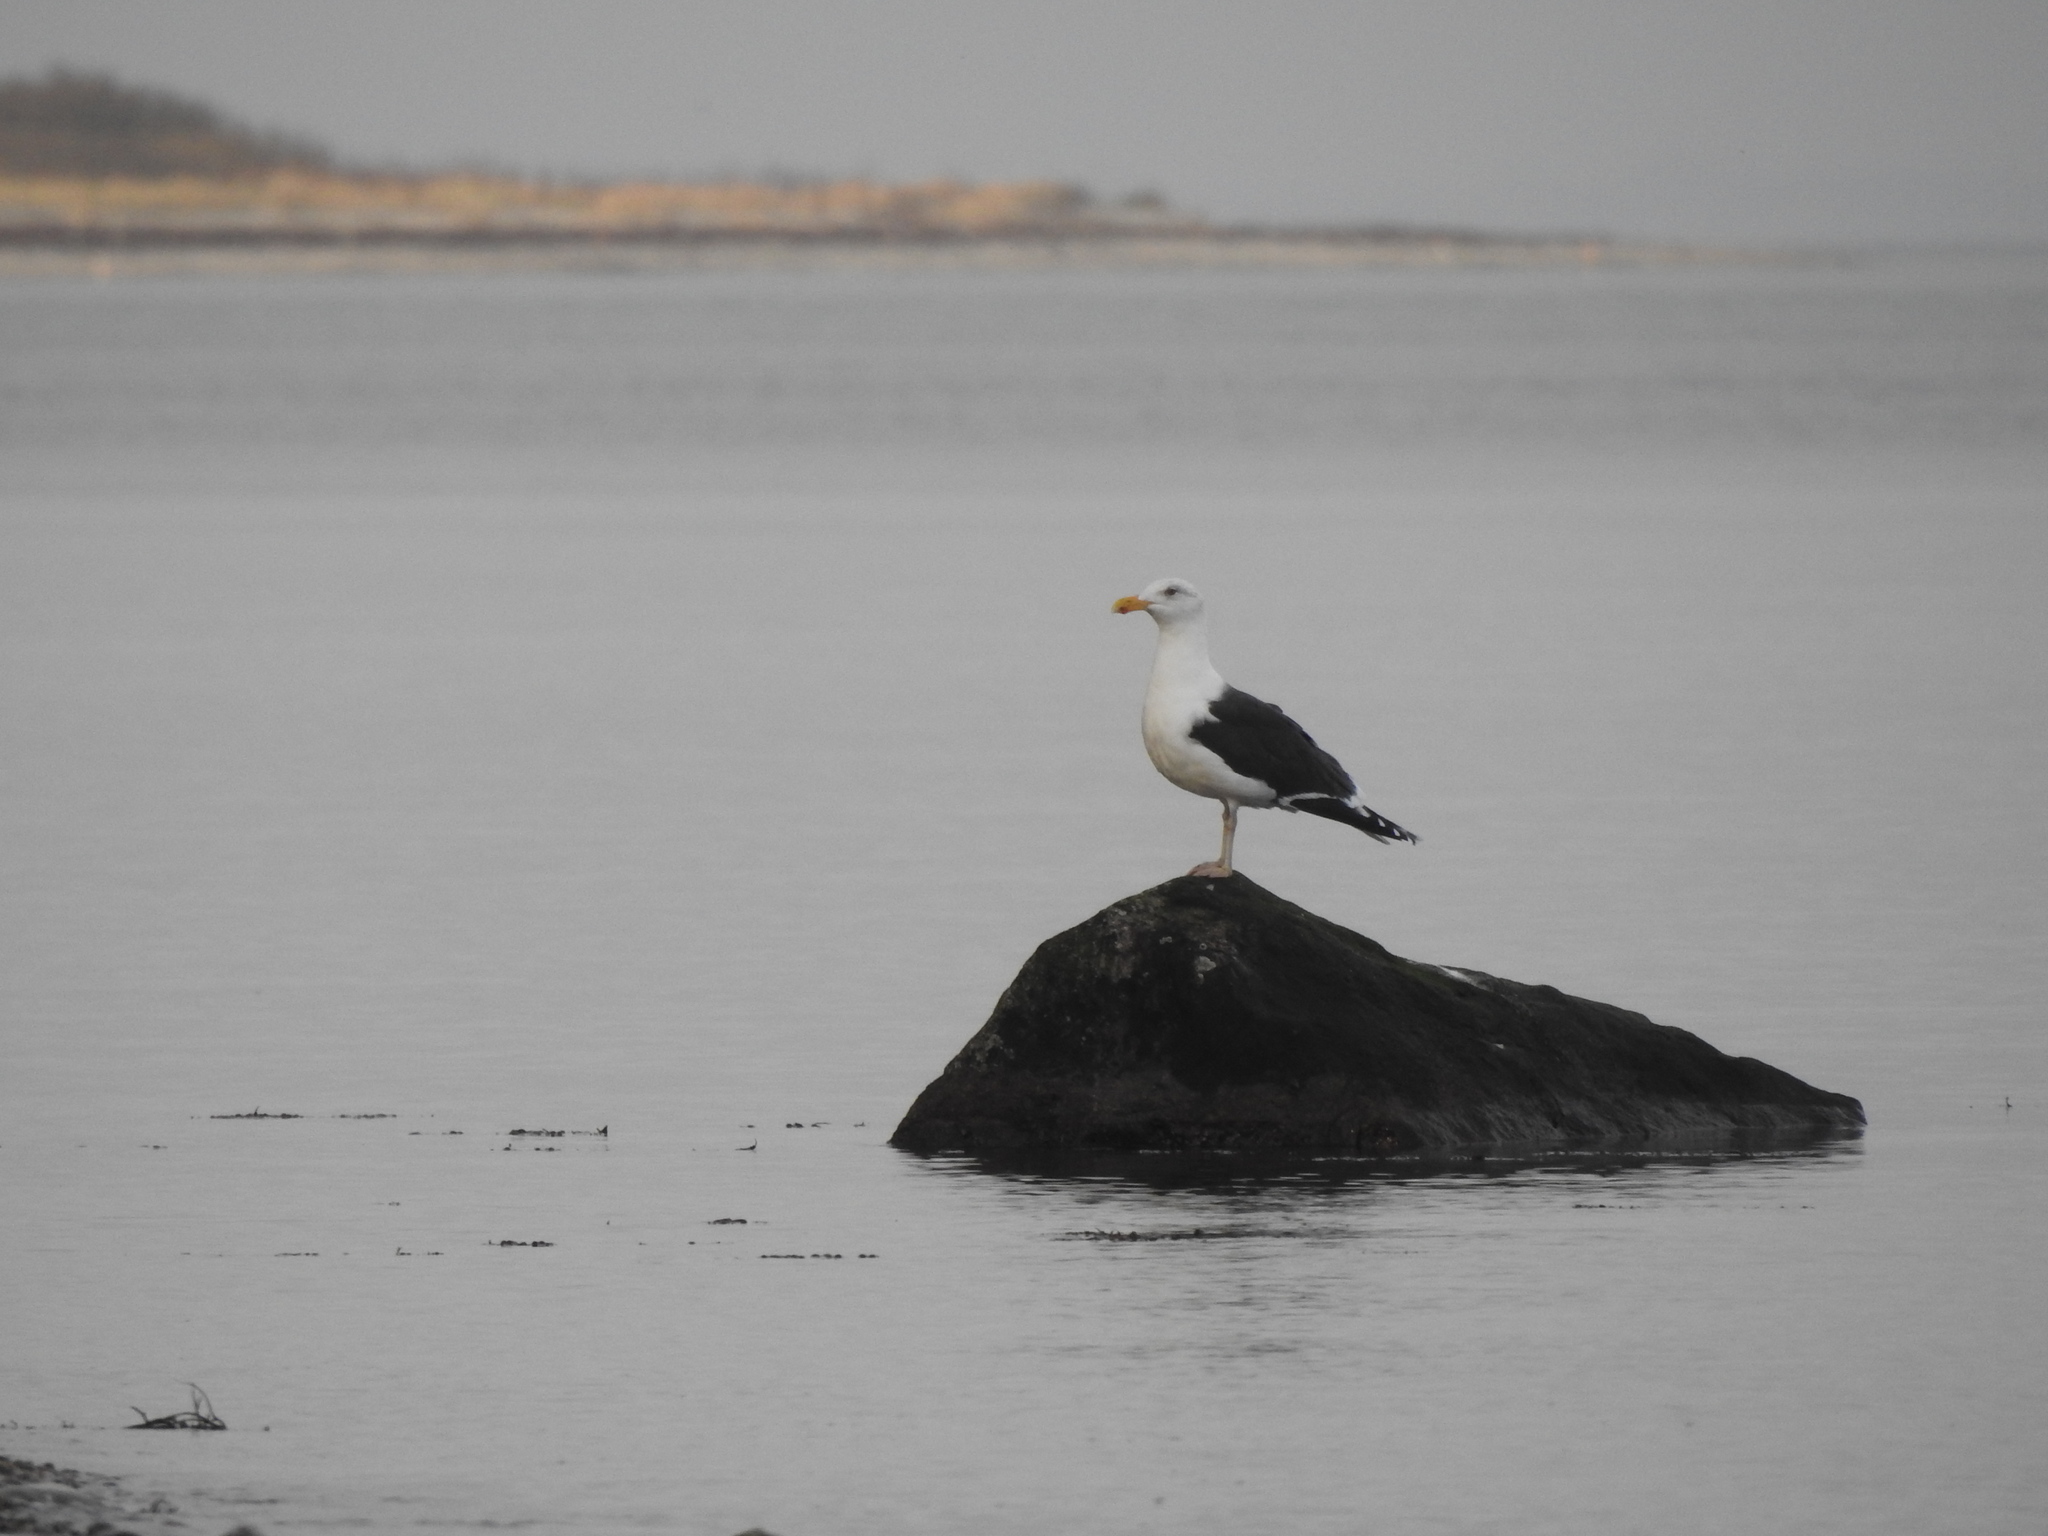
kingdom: Animalia
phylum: Chordata
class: Aves
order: Charadriiformes
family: Laridae
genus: Larus
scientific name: Larus marinus
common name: Great black-backed gull
